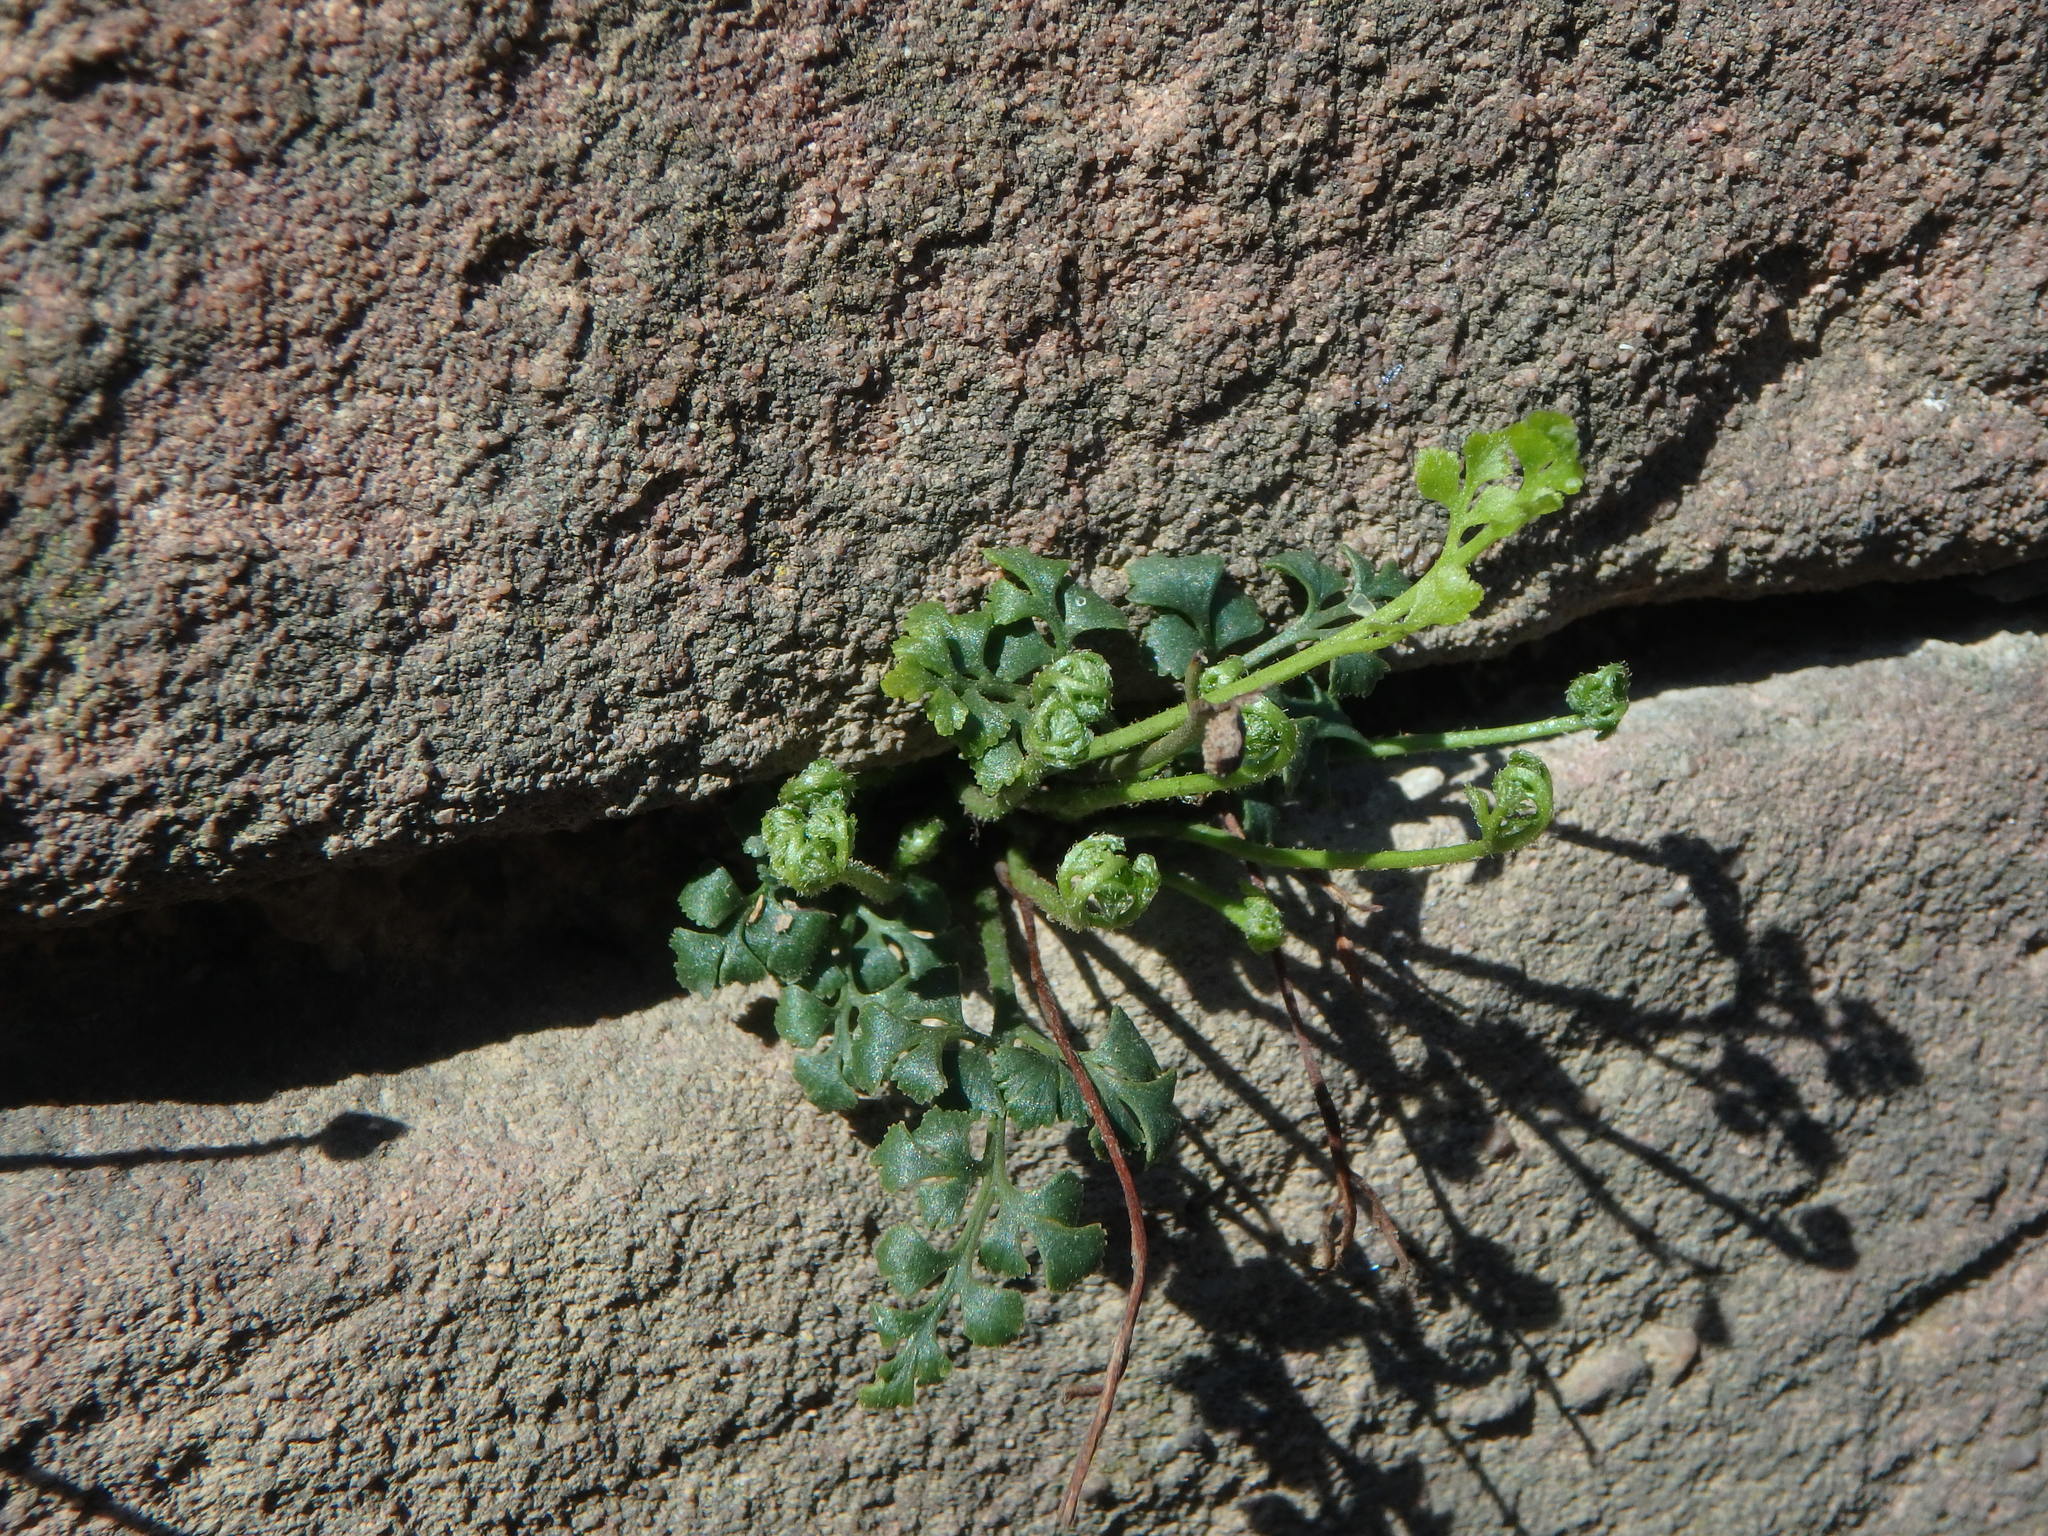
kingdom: Plantae
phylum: Tracheophyta
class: Polypodiopsida
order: Polypodiales
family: Aspleniaceae
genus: Asplenium
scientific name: Asplenium ruta-muraria
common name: Wall-rue
